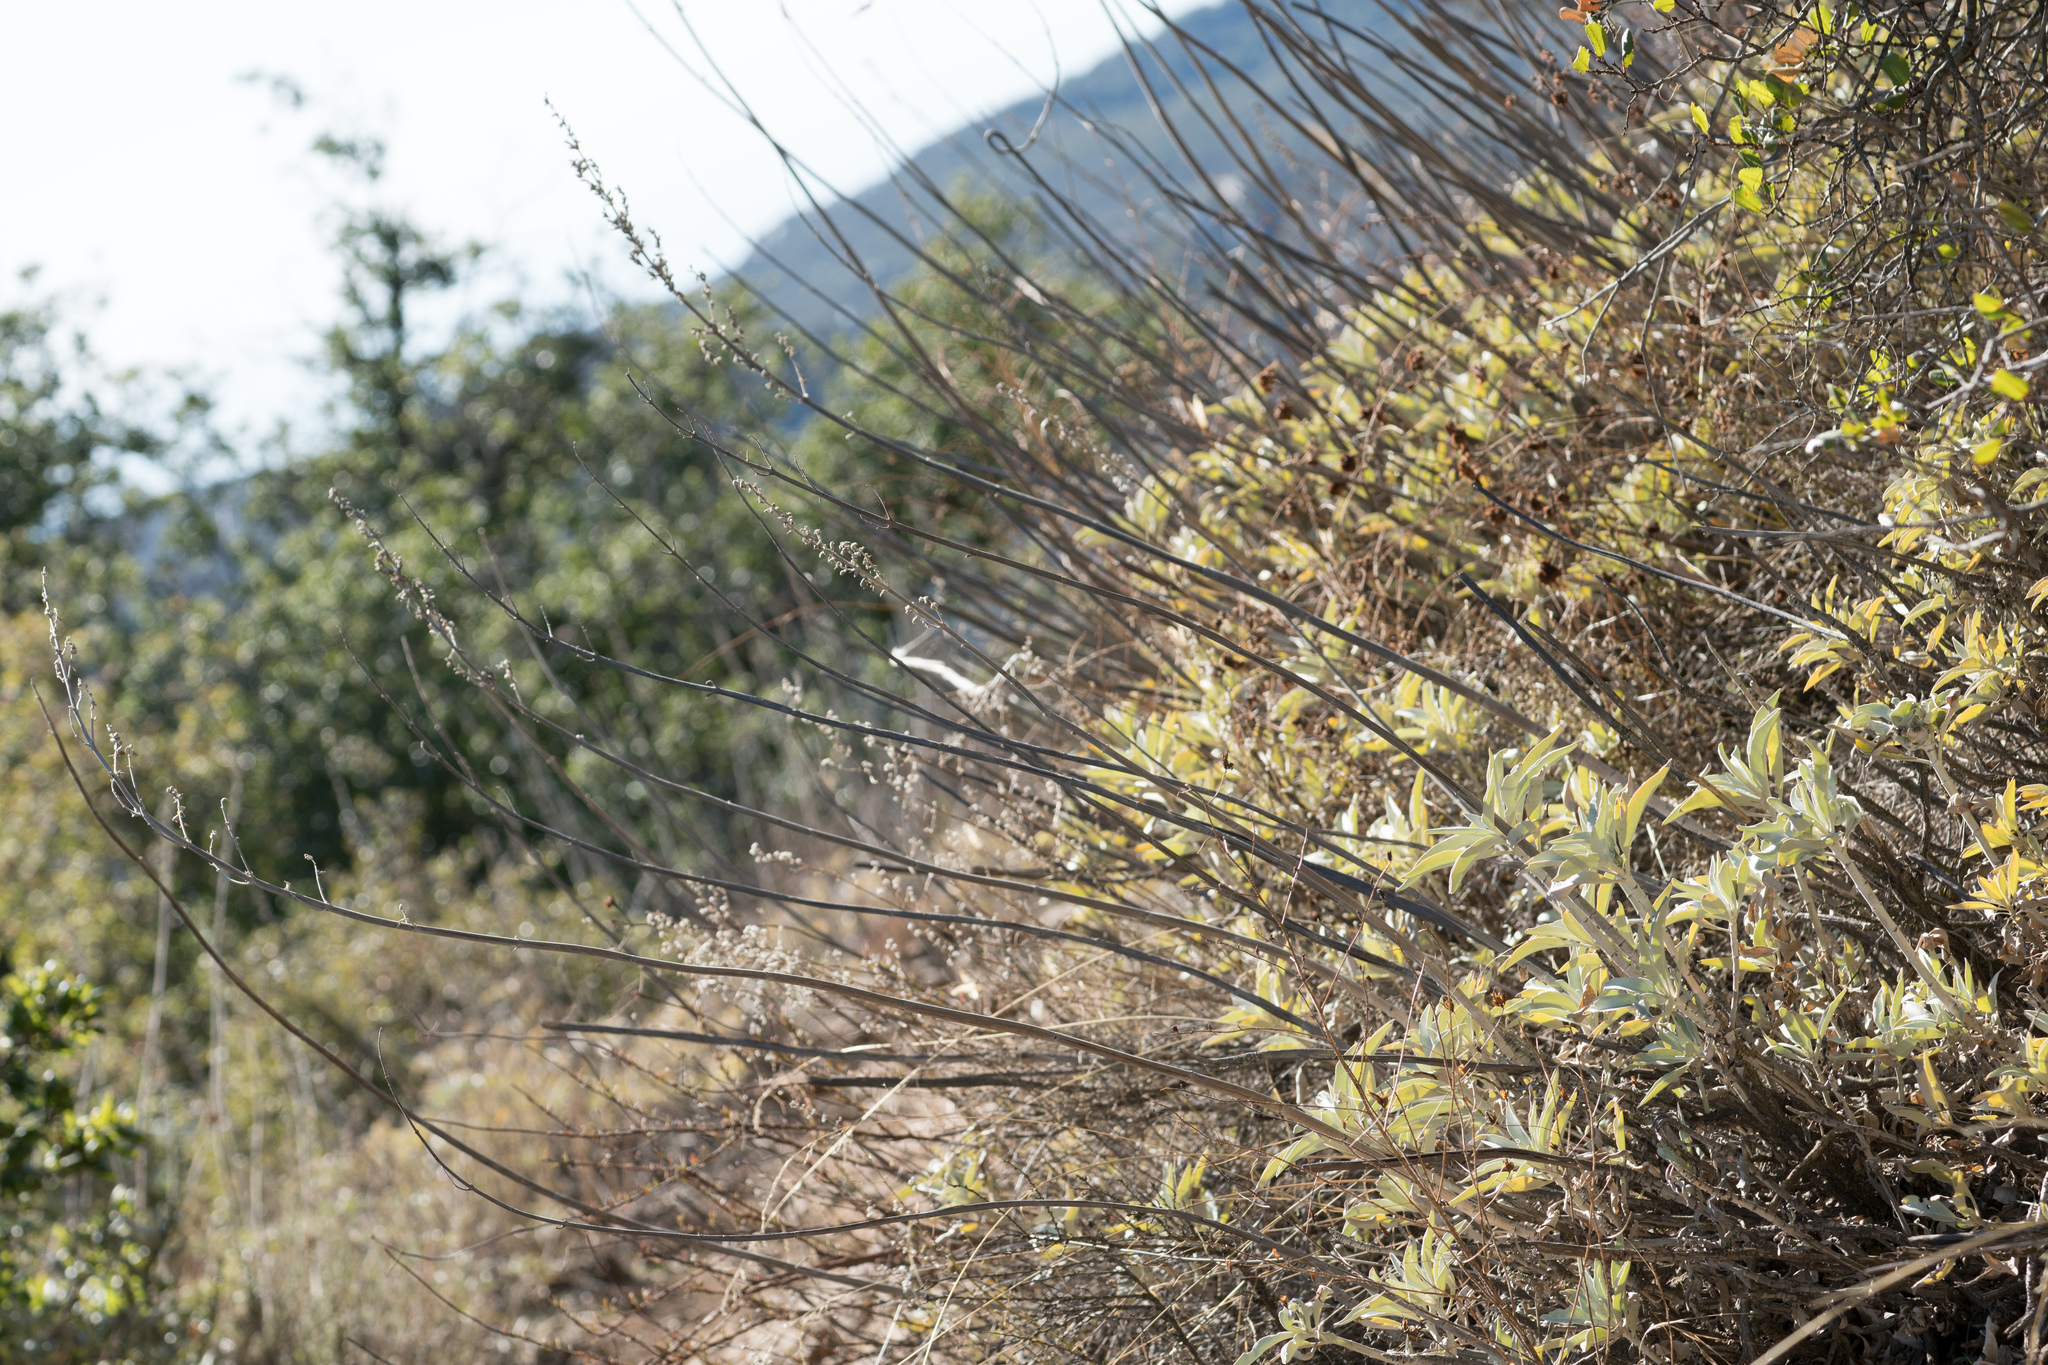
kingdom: Plantae
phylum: Tracheophyta
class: Magnoliopsida
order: Lamiales
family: Lamiaceae
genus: Salvia
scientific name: Salvia apiana
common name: White sage
